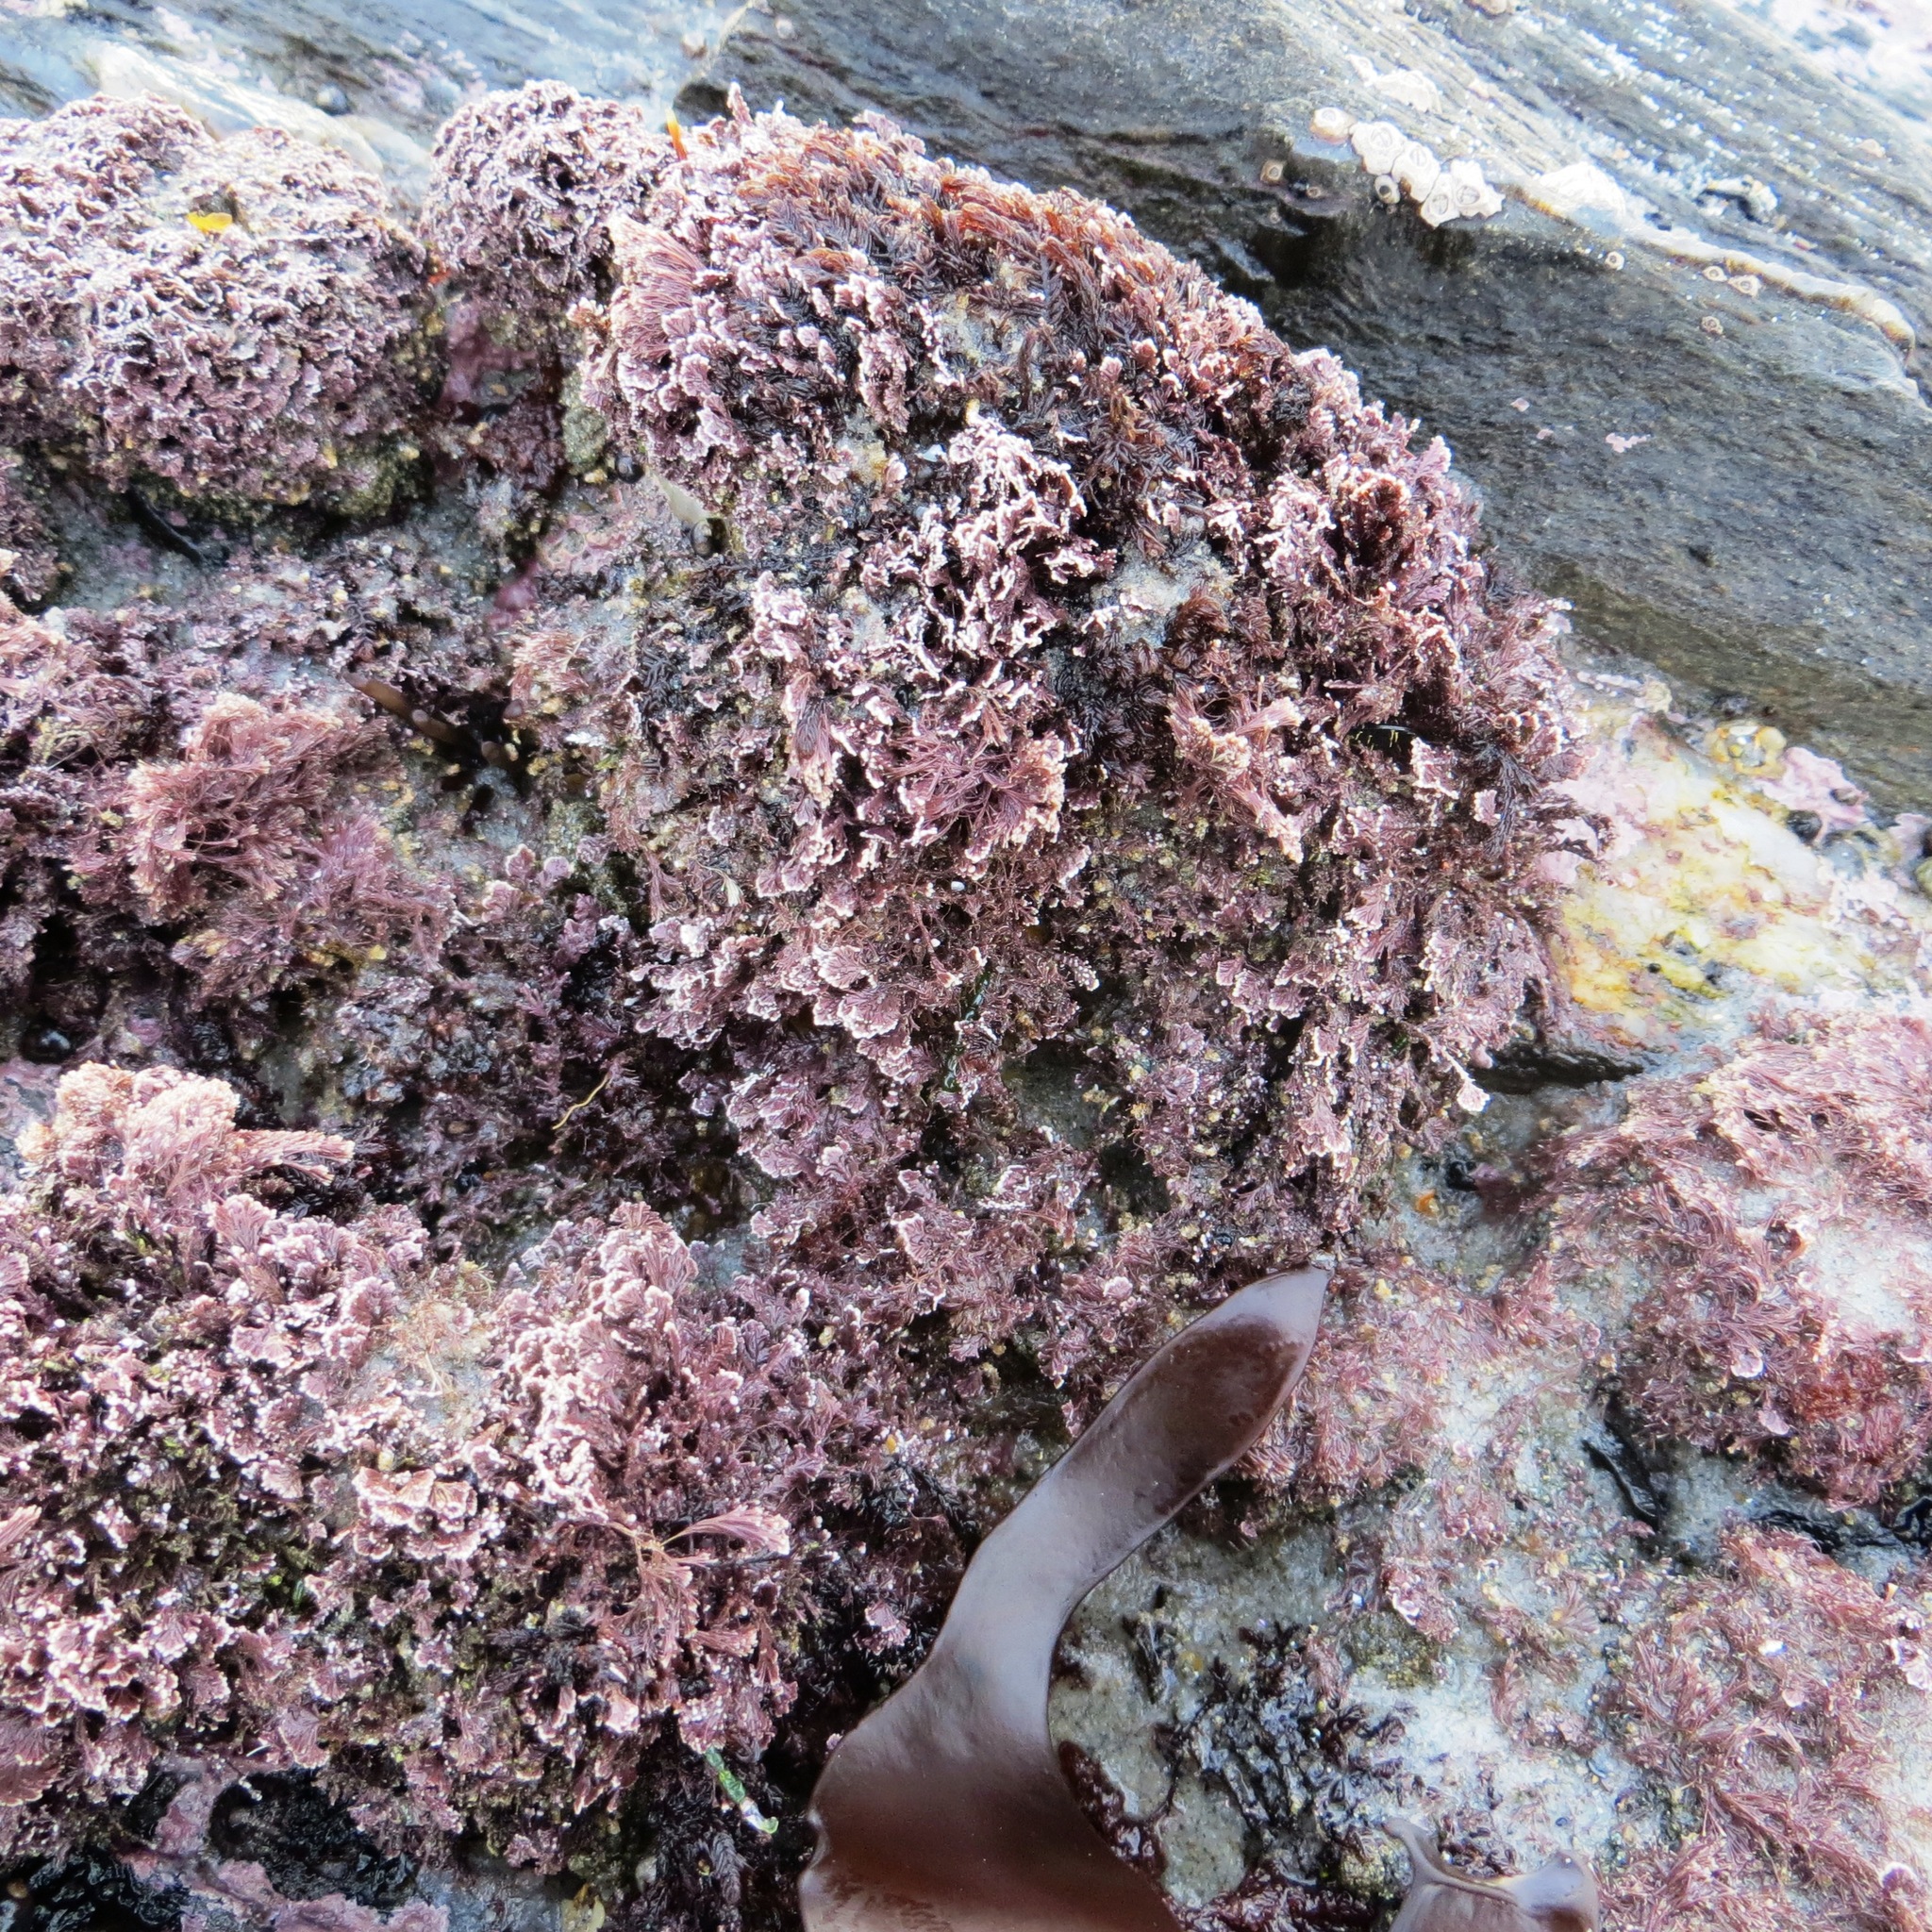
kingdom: Plantae
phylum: Rhodophyta
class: Florideophyceae
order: Corallinales
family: Corallinaceae
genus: Corallina
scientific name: Corallina officinalis
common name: Coral weed
